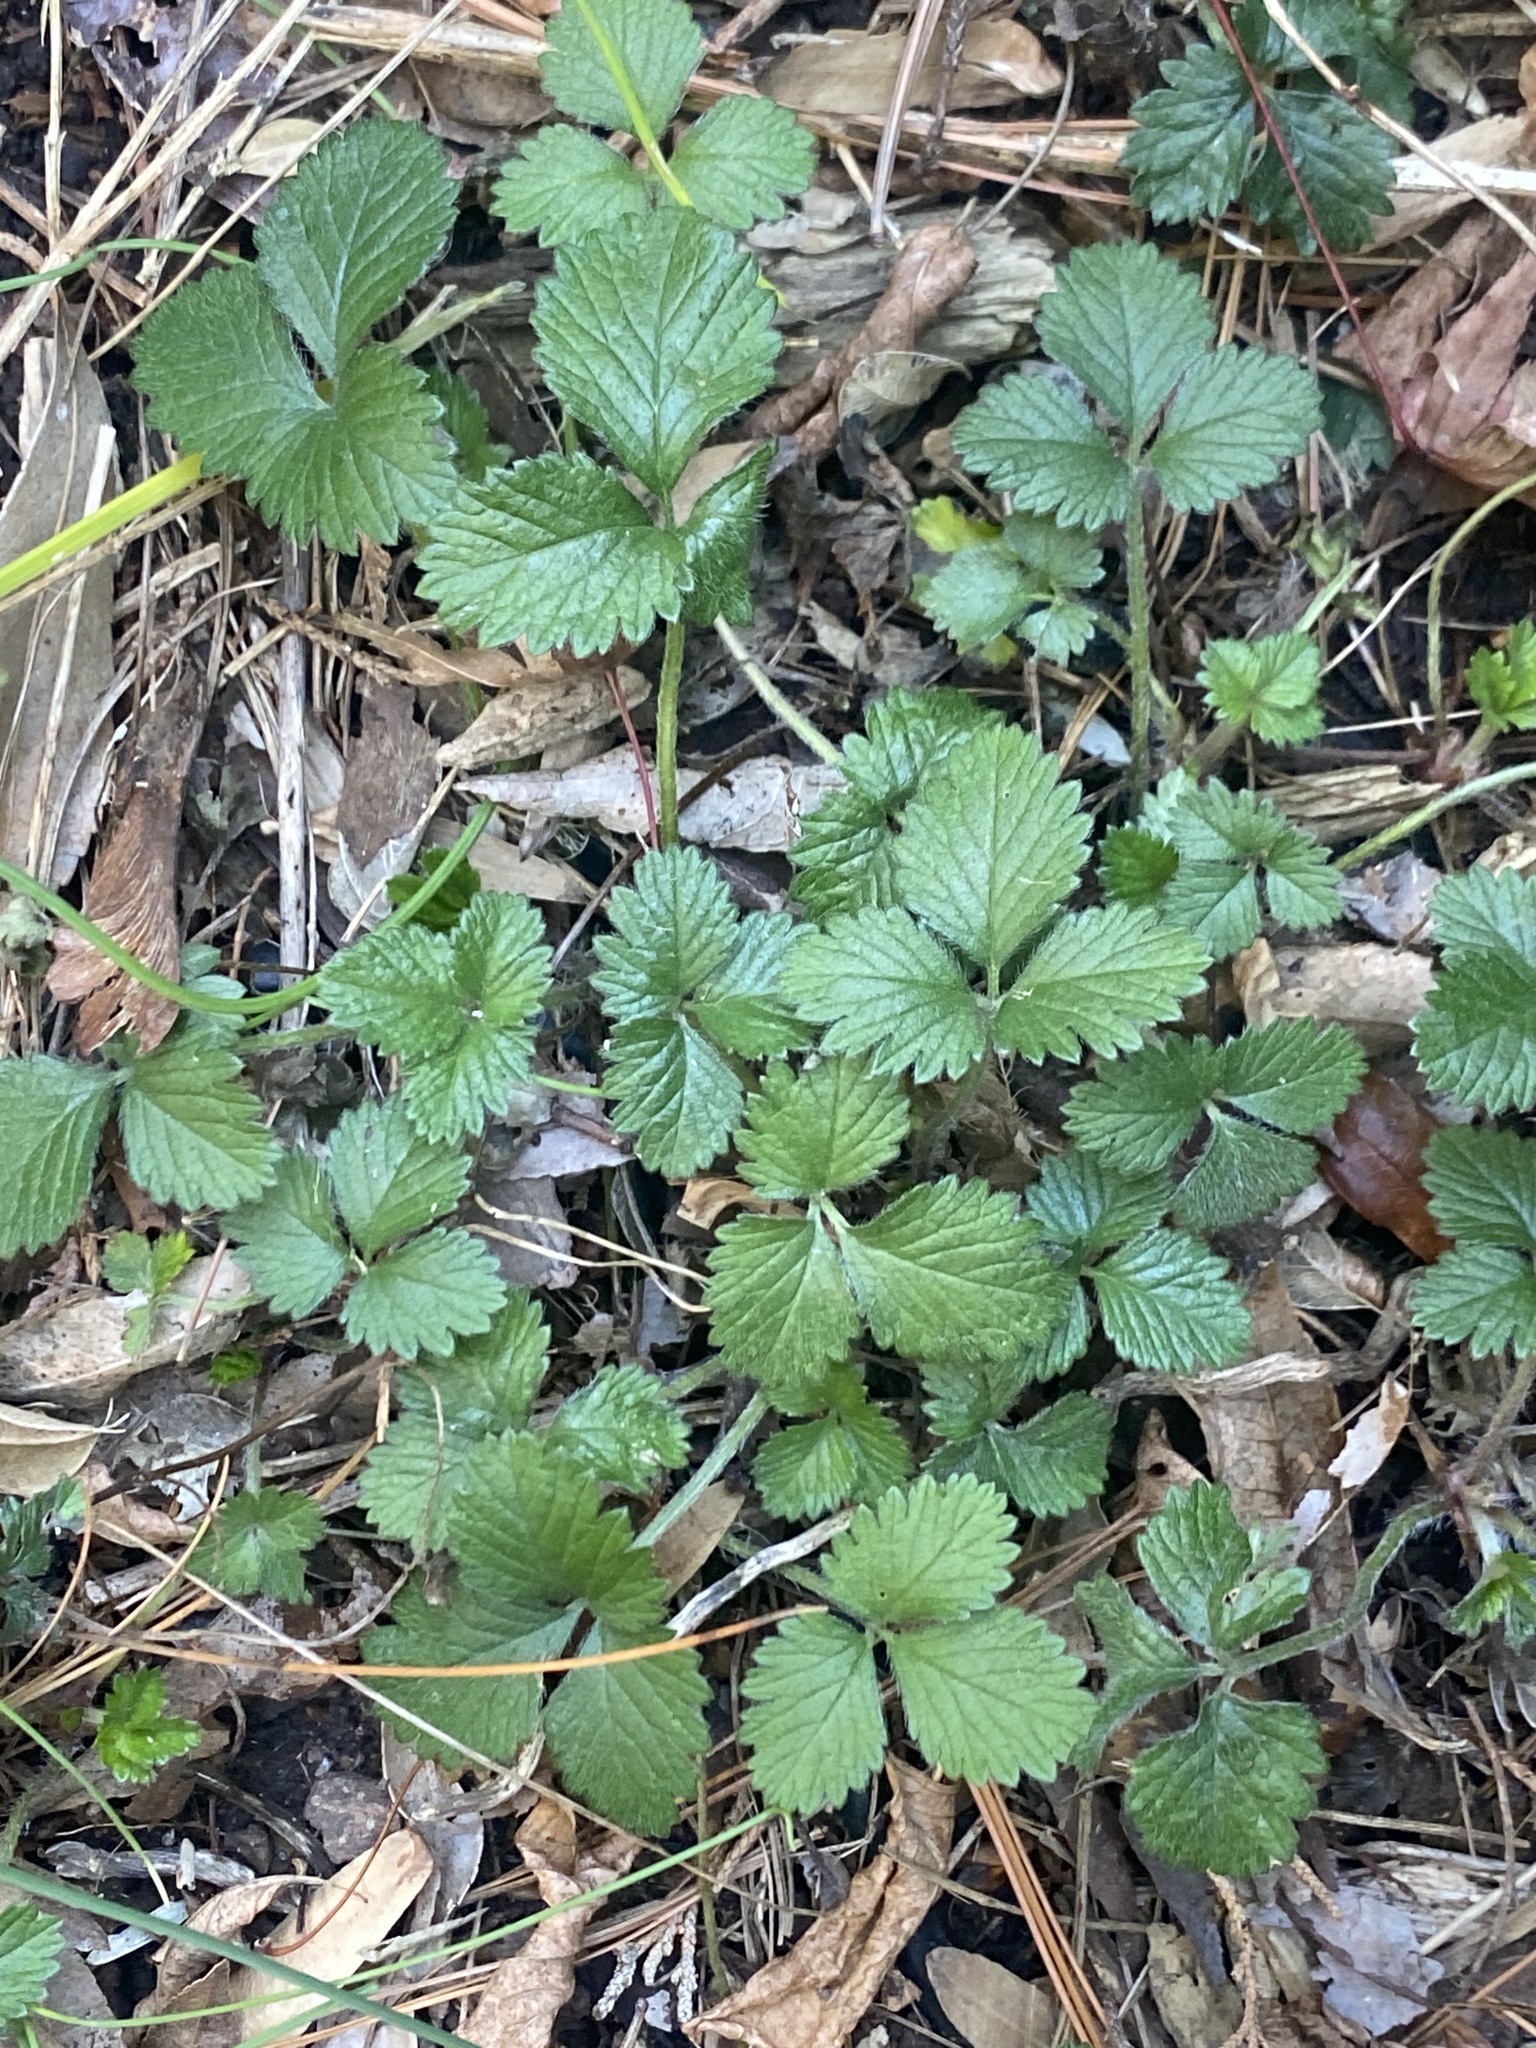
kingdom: Plantae
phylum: Tracheophyta
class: Magnoliopsida
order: Rosales
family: Rosaceae
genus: Potentilla
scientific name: Potentilla indica
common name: Yellow-flowered strawberry
